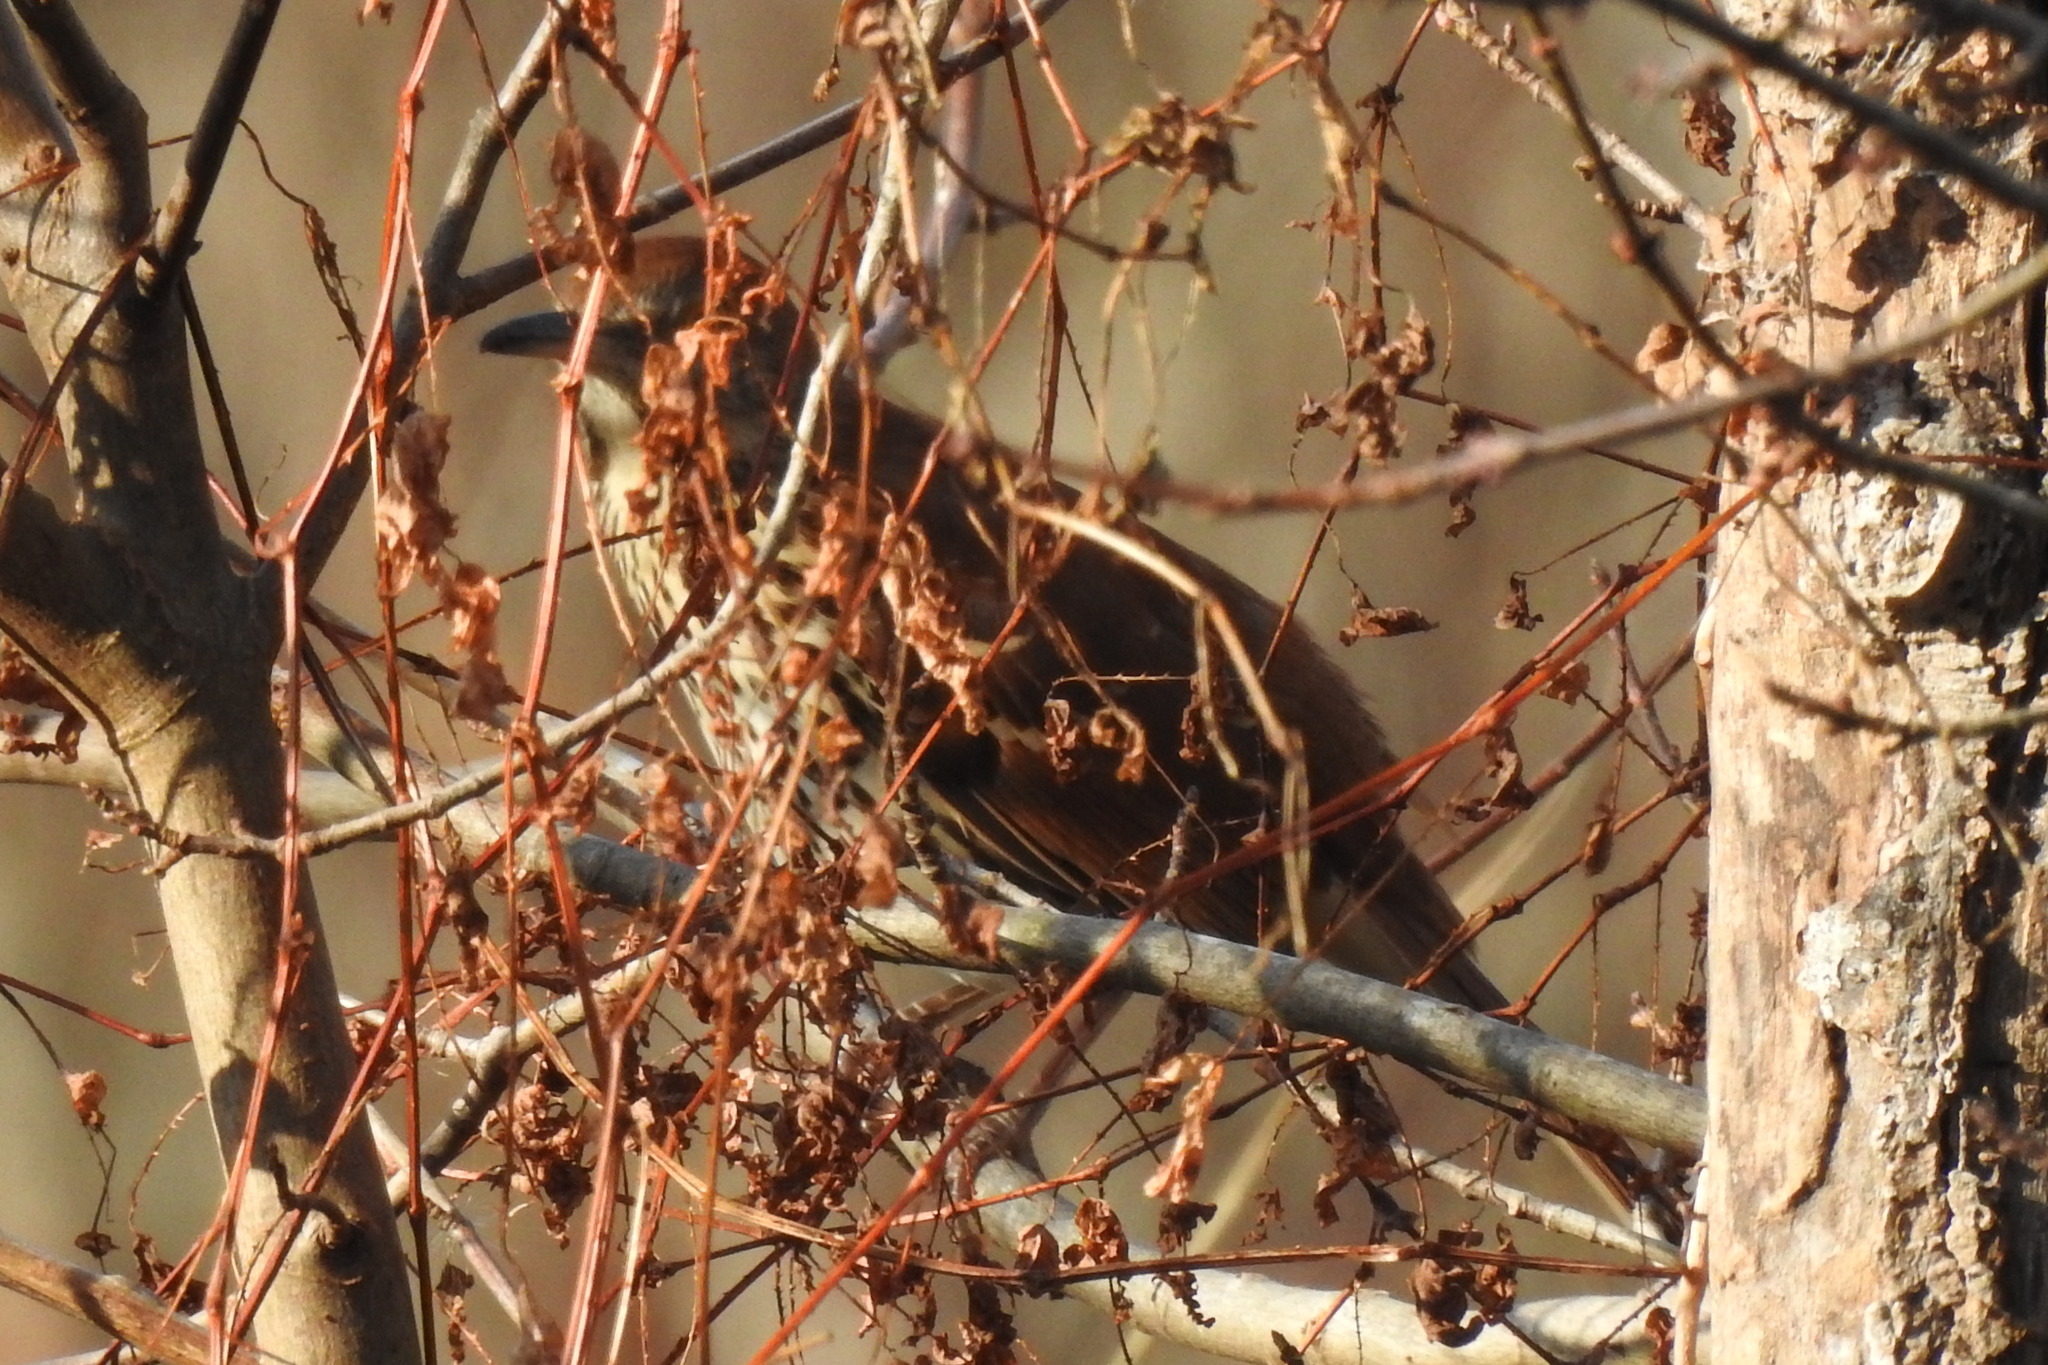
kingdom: Animalia
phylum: Chordata
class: Aves
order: Passeriformes
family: Mimidae
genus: Toxostoma
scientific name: Toxostoma rufum
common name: Brown thrasher
